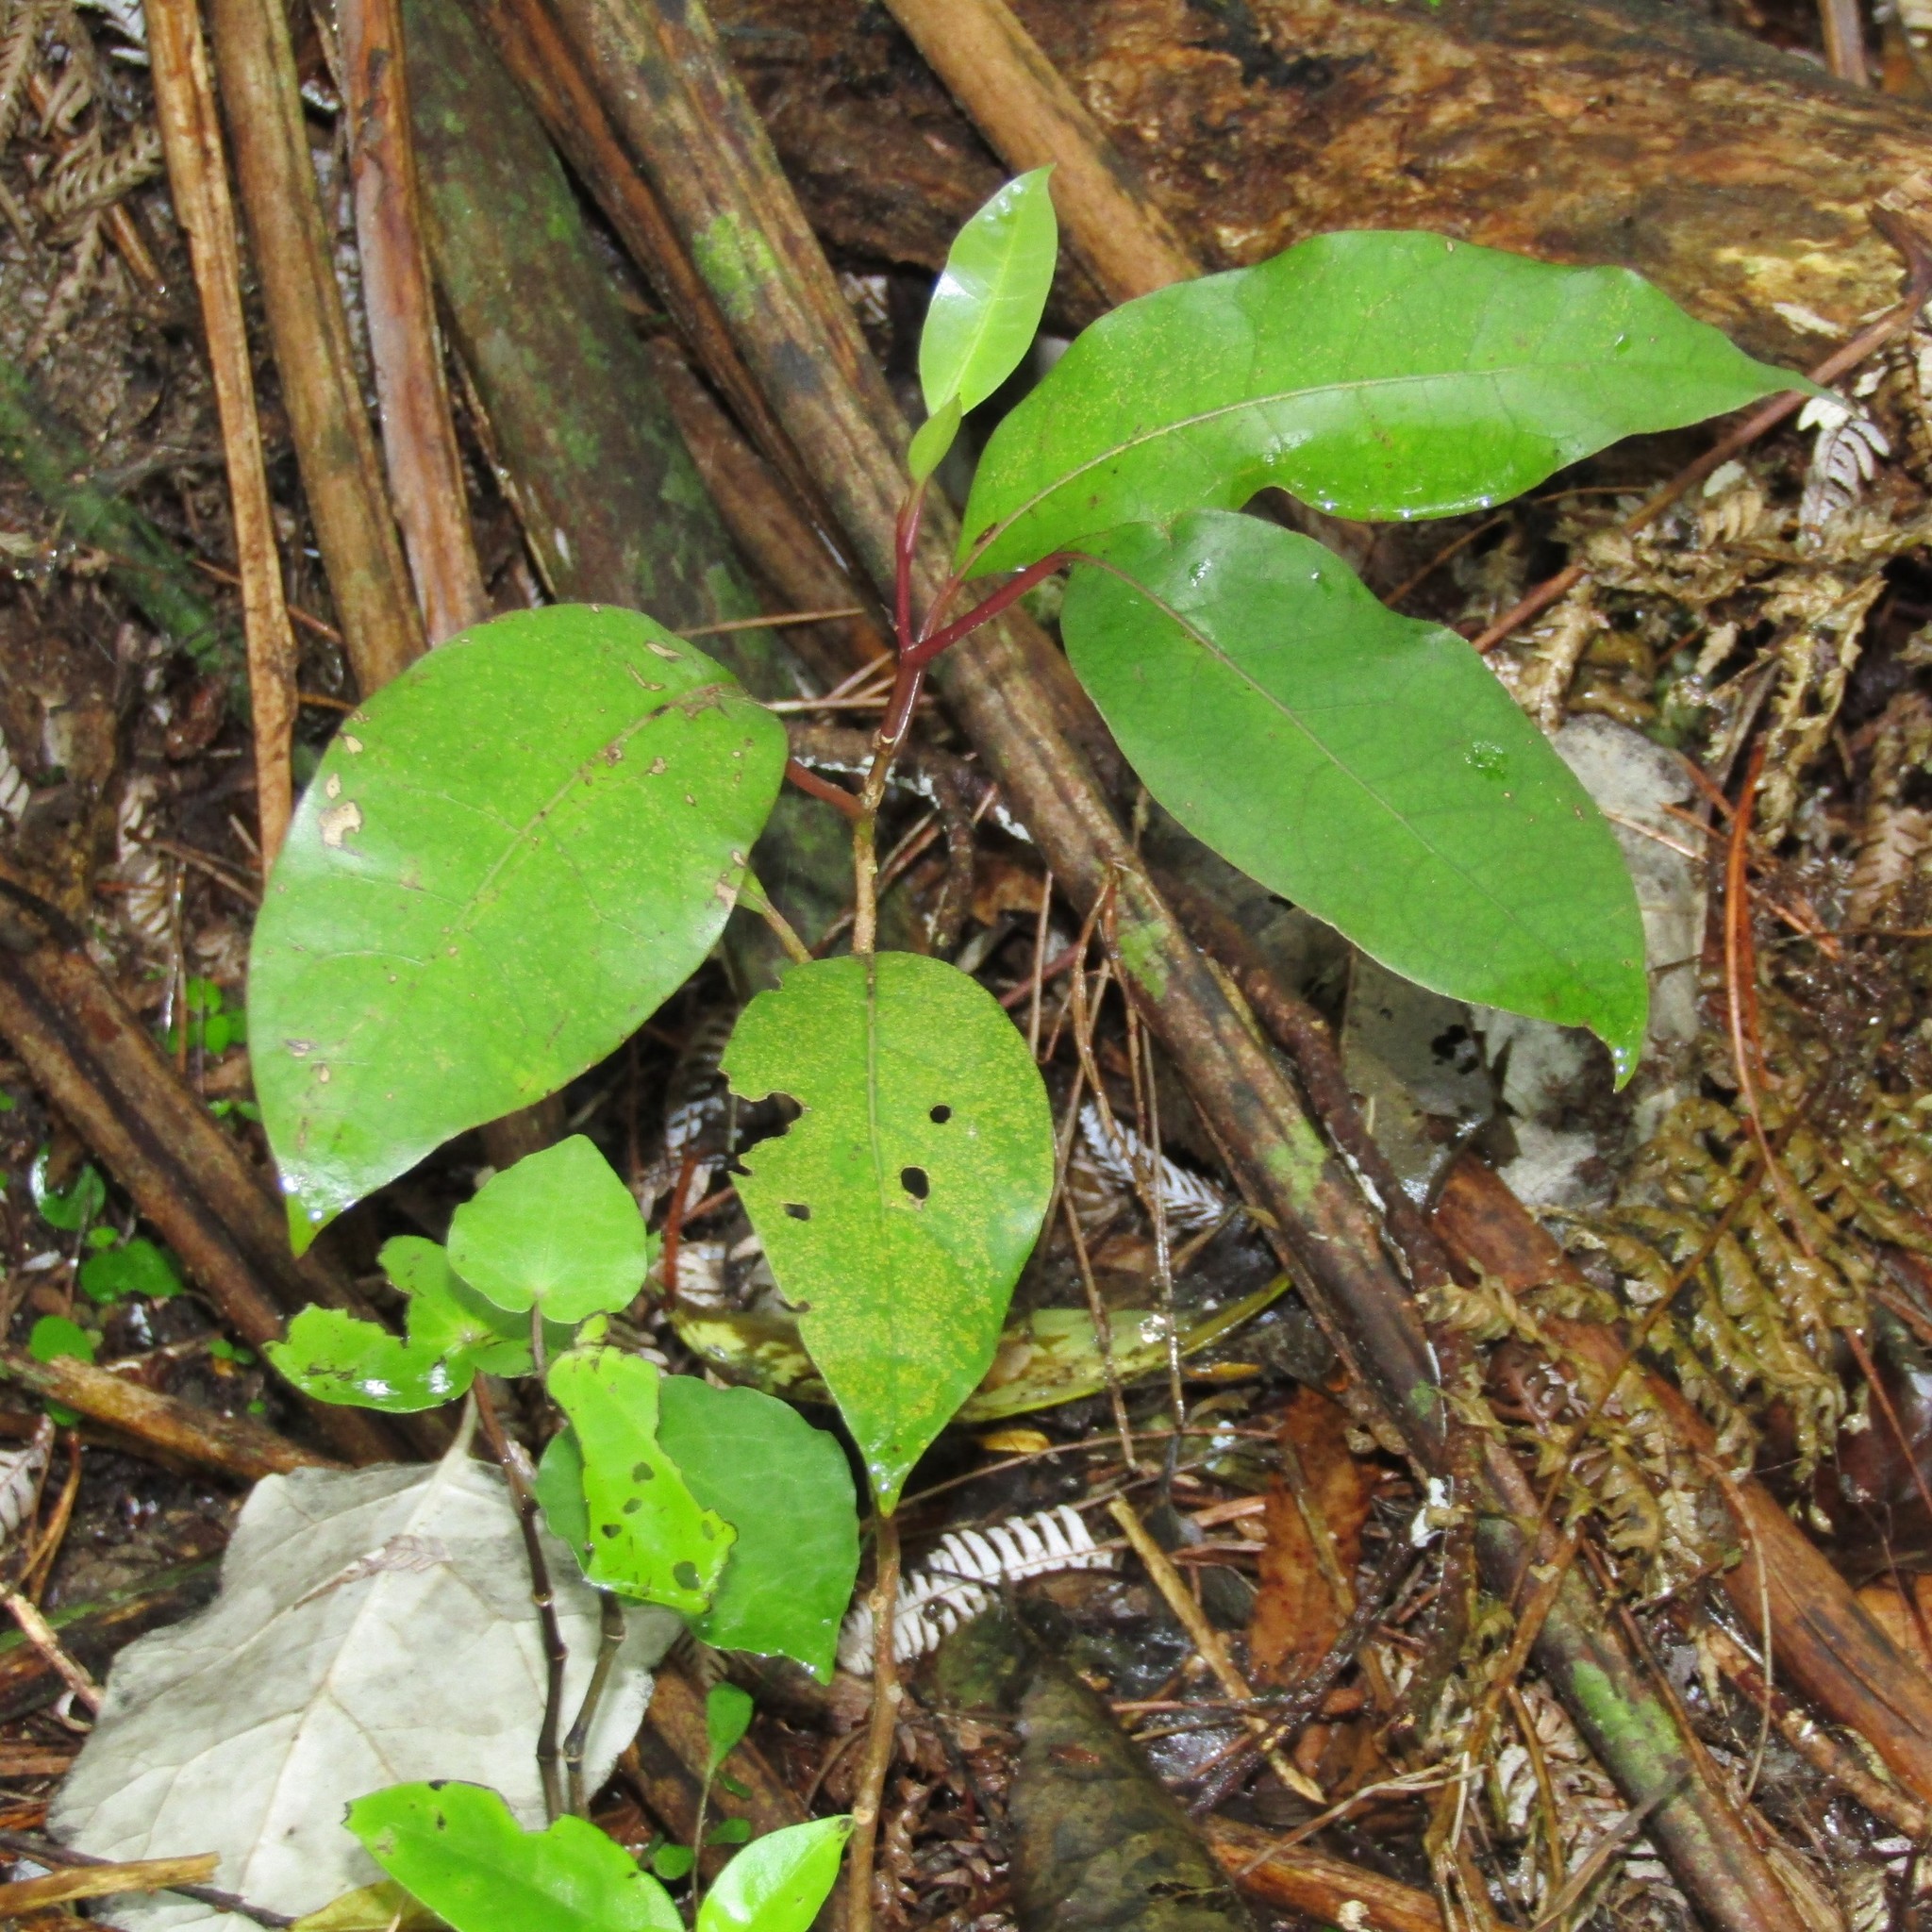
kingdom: Plantae
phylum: Tracheophyta
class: Magnoliopsida
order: Laurales
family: Lauraceae
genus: Litsea
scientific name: Litsea calicaris
